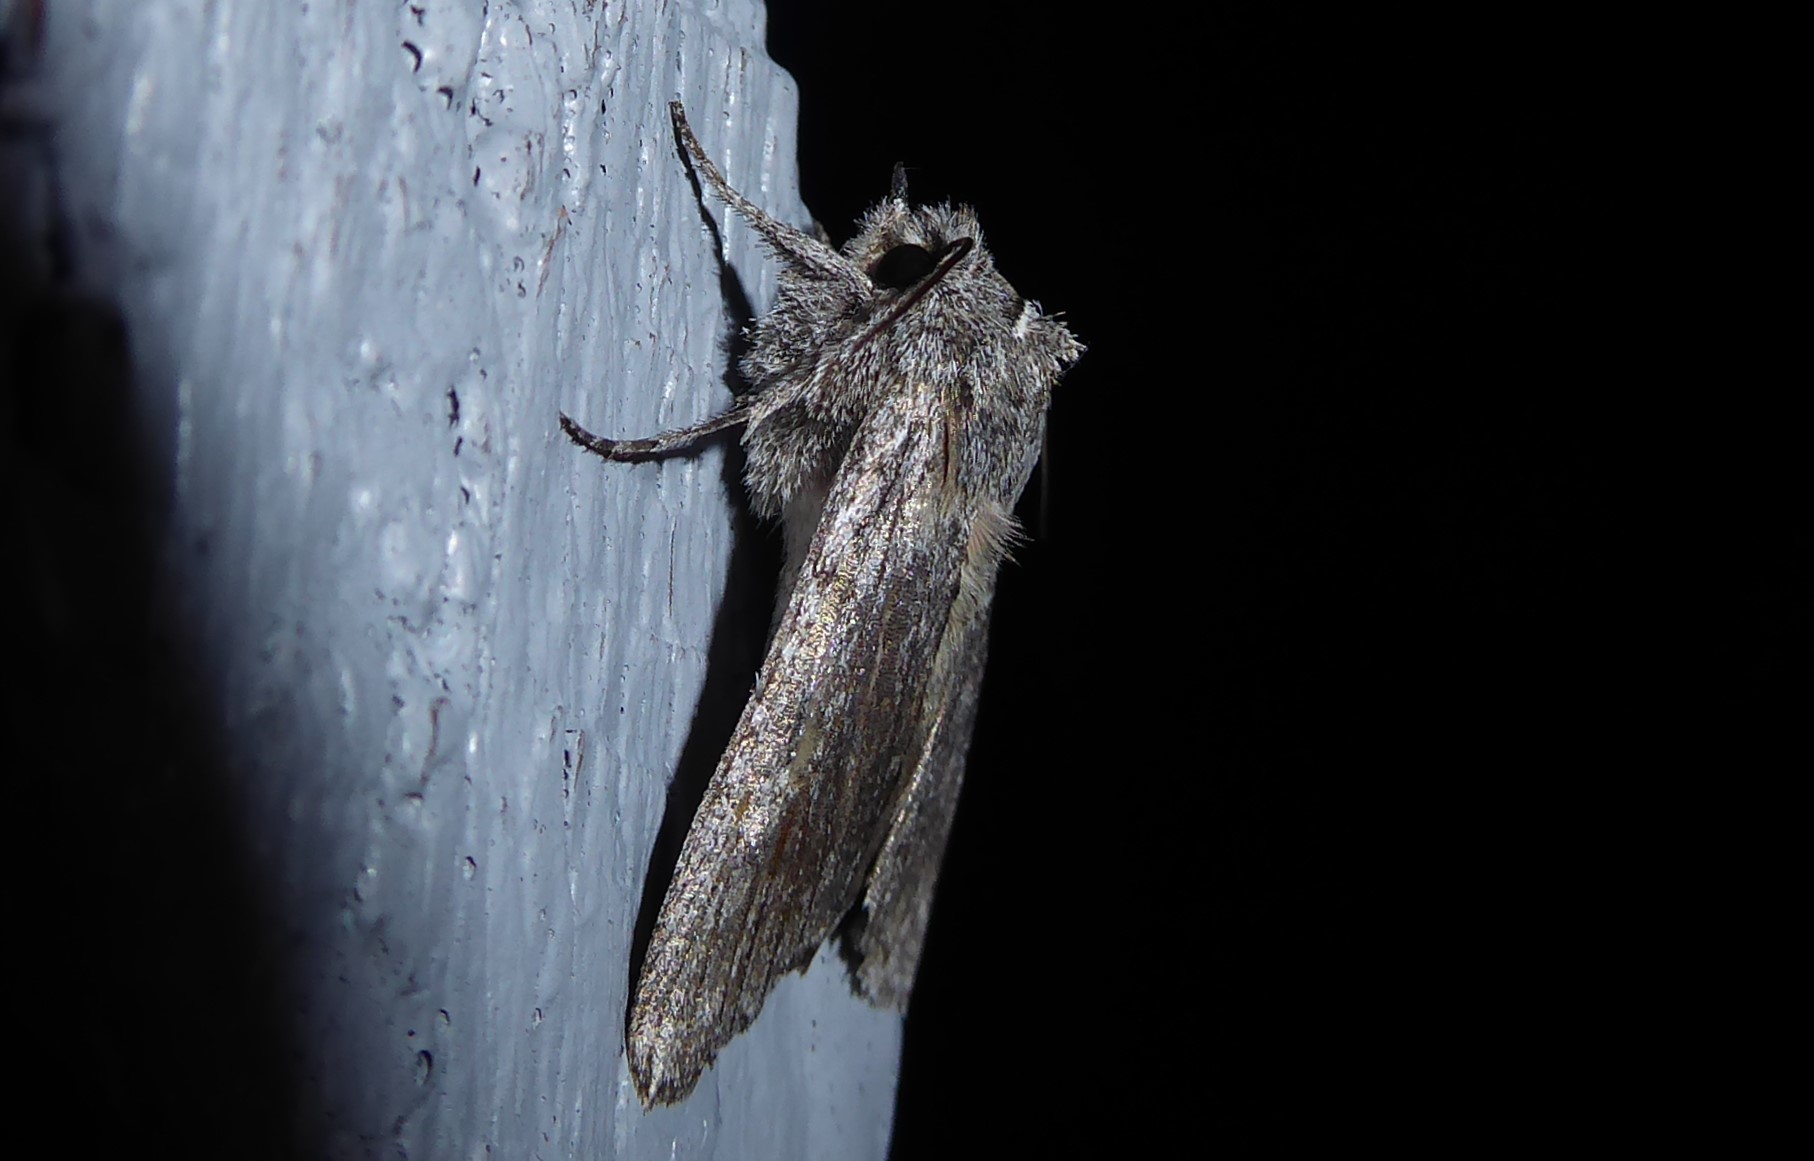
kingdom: Animalia
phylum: Arthropoda
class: Insecta
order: Lepidoptera
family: Noctuidae
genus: Physetica
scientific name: Physetica phricias
